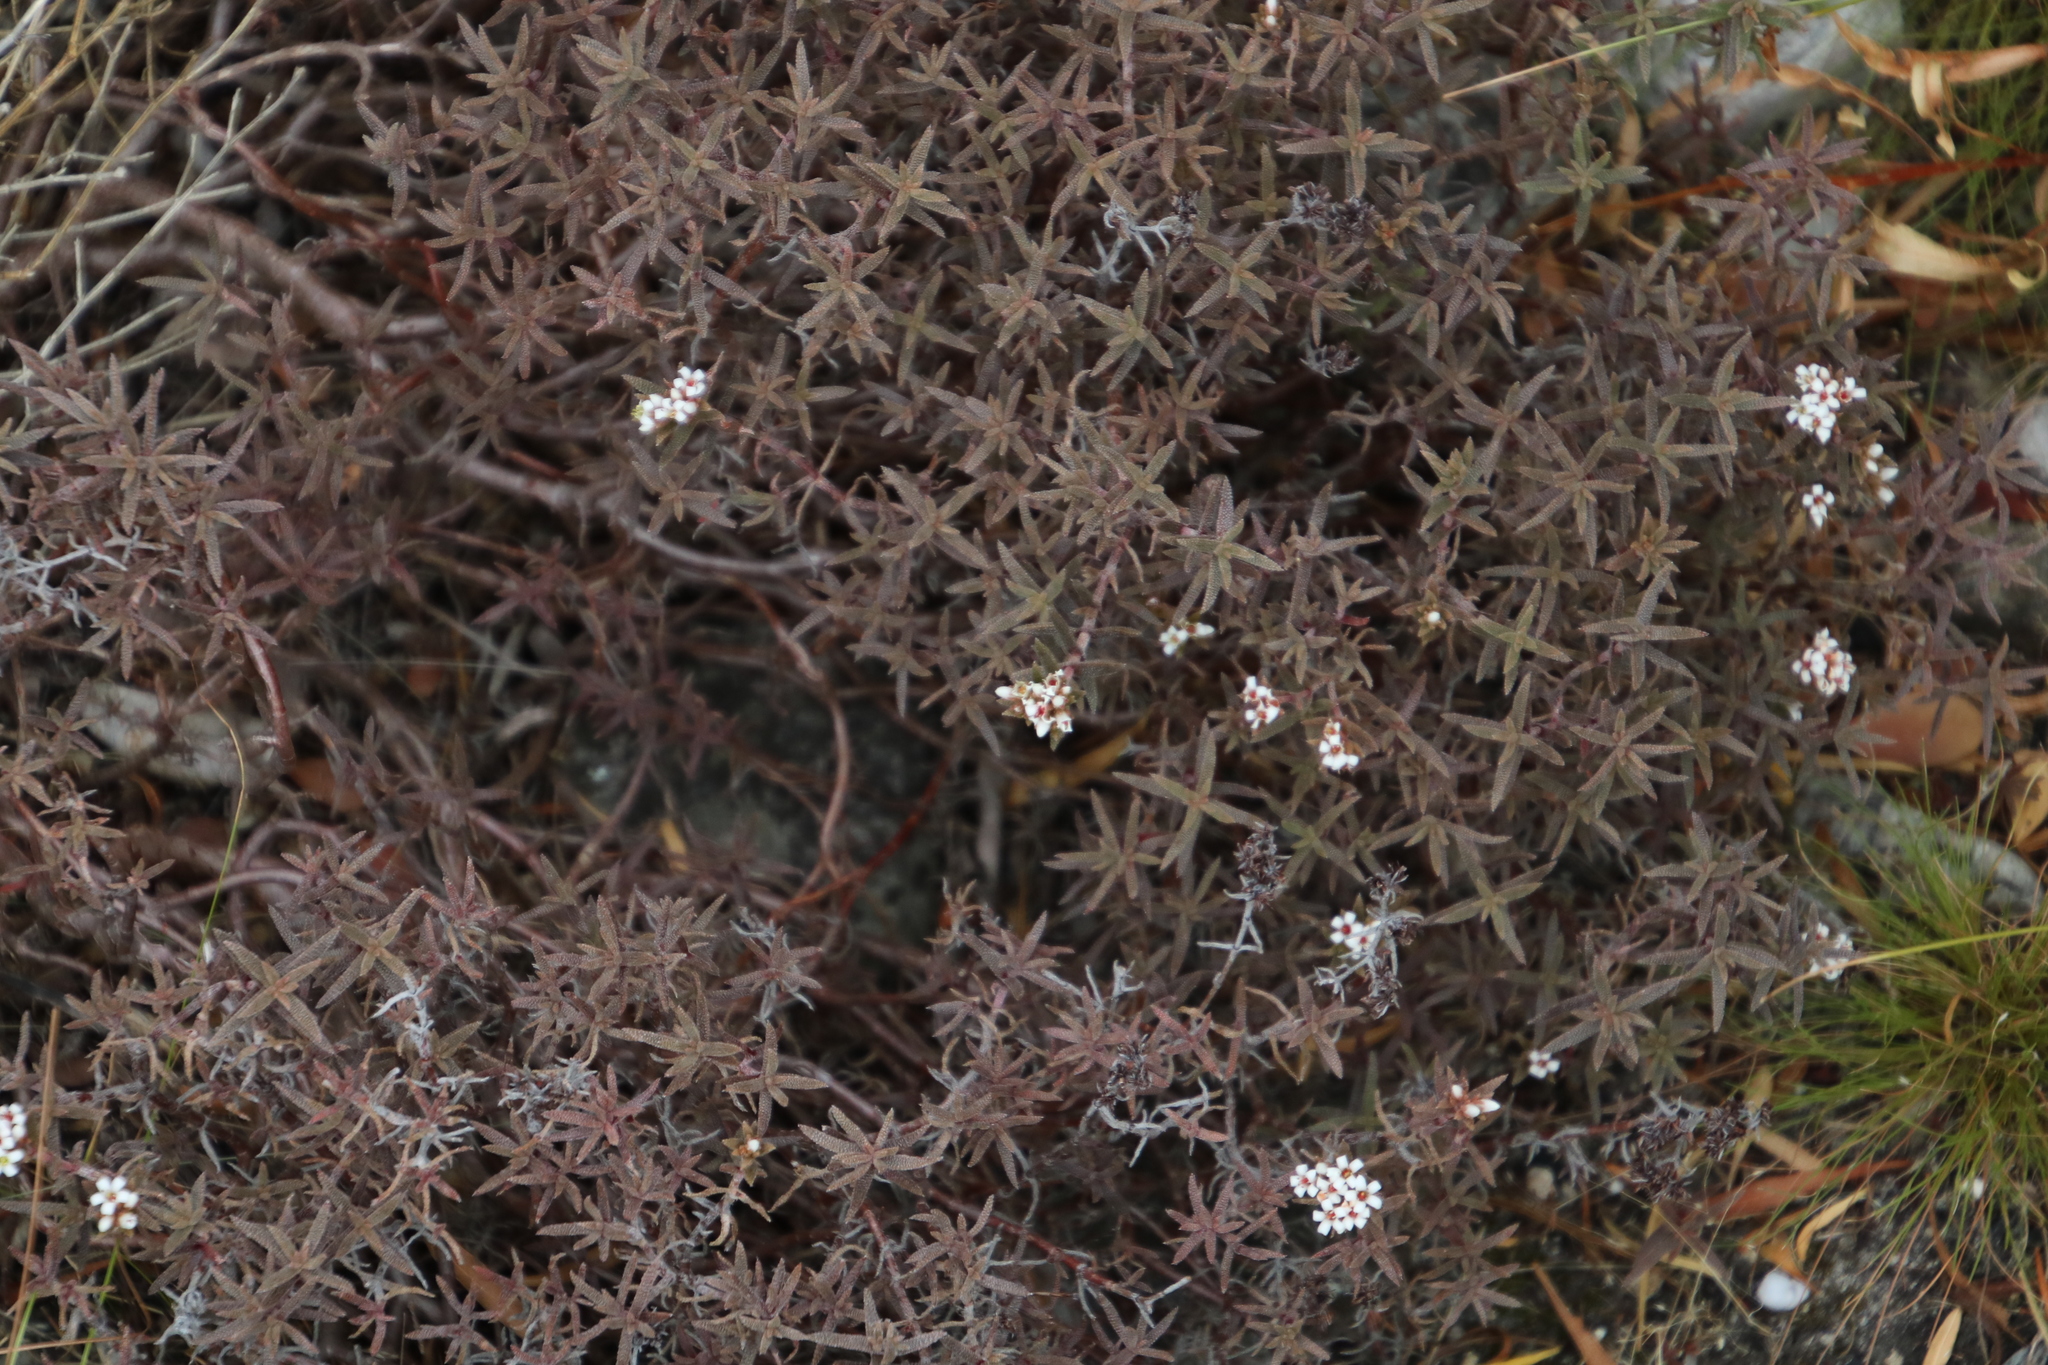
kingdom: Plantae
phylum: Tracheophyta
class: Magnoliopsida
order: Saxifragales
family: Crassulaceae
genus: Crassula
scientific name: Crassula pruinosa
